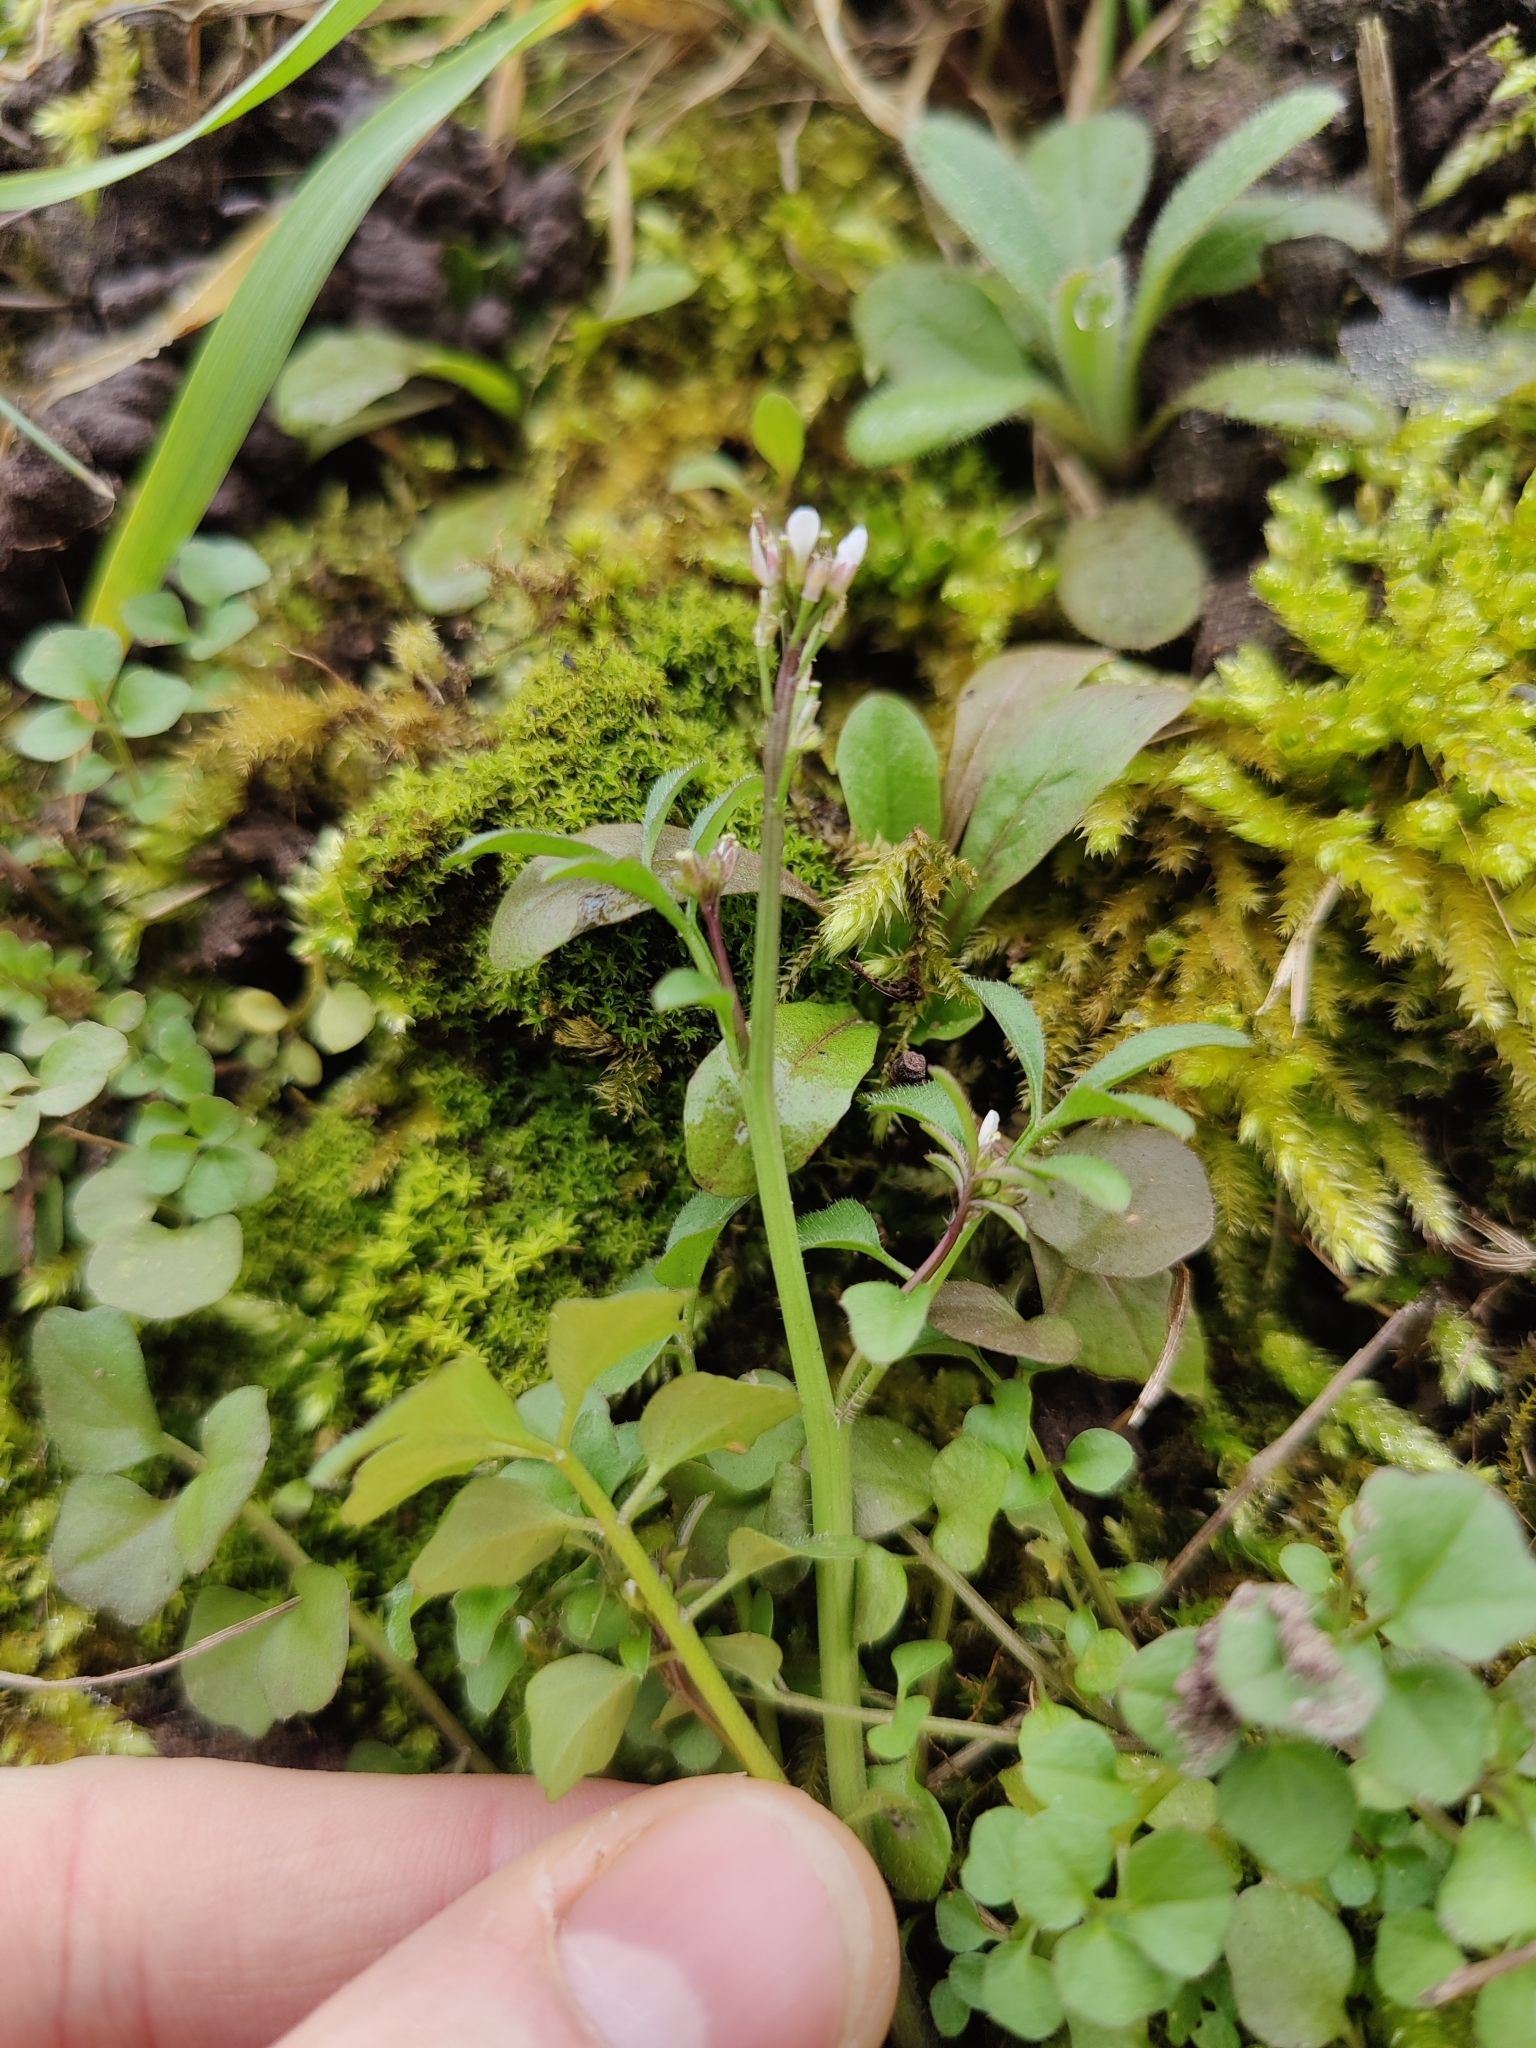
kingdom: Plantae
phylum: Tracheophyta
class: Magnoliopsida
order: Brassicales
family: Brassicaceae
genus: Cardamine
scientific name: Cardamine hirsuta
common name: Hairy bittercress
